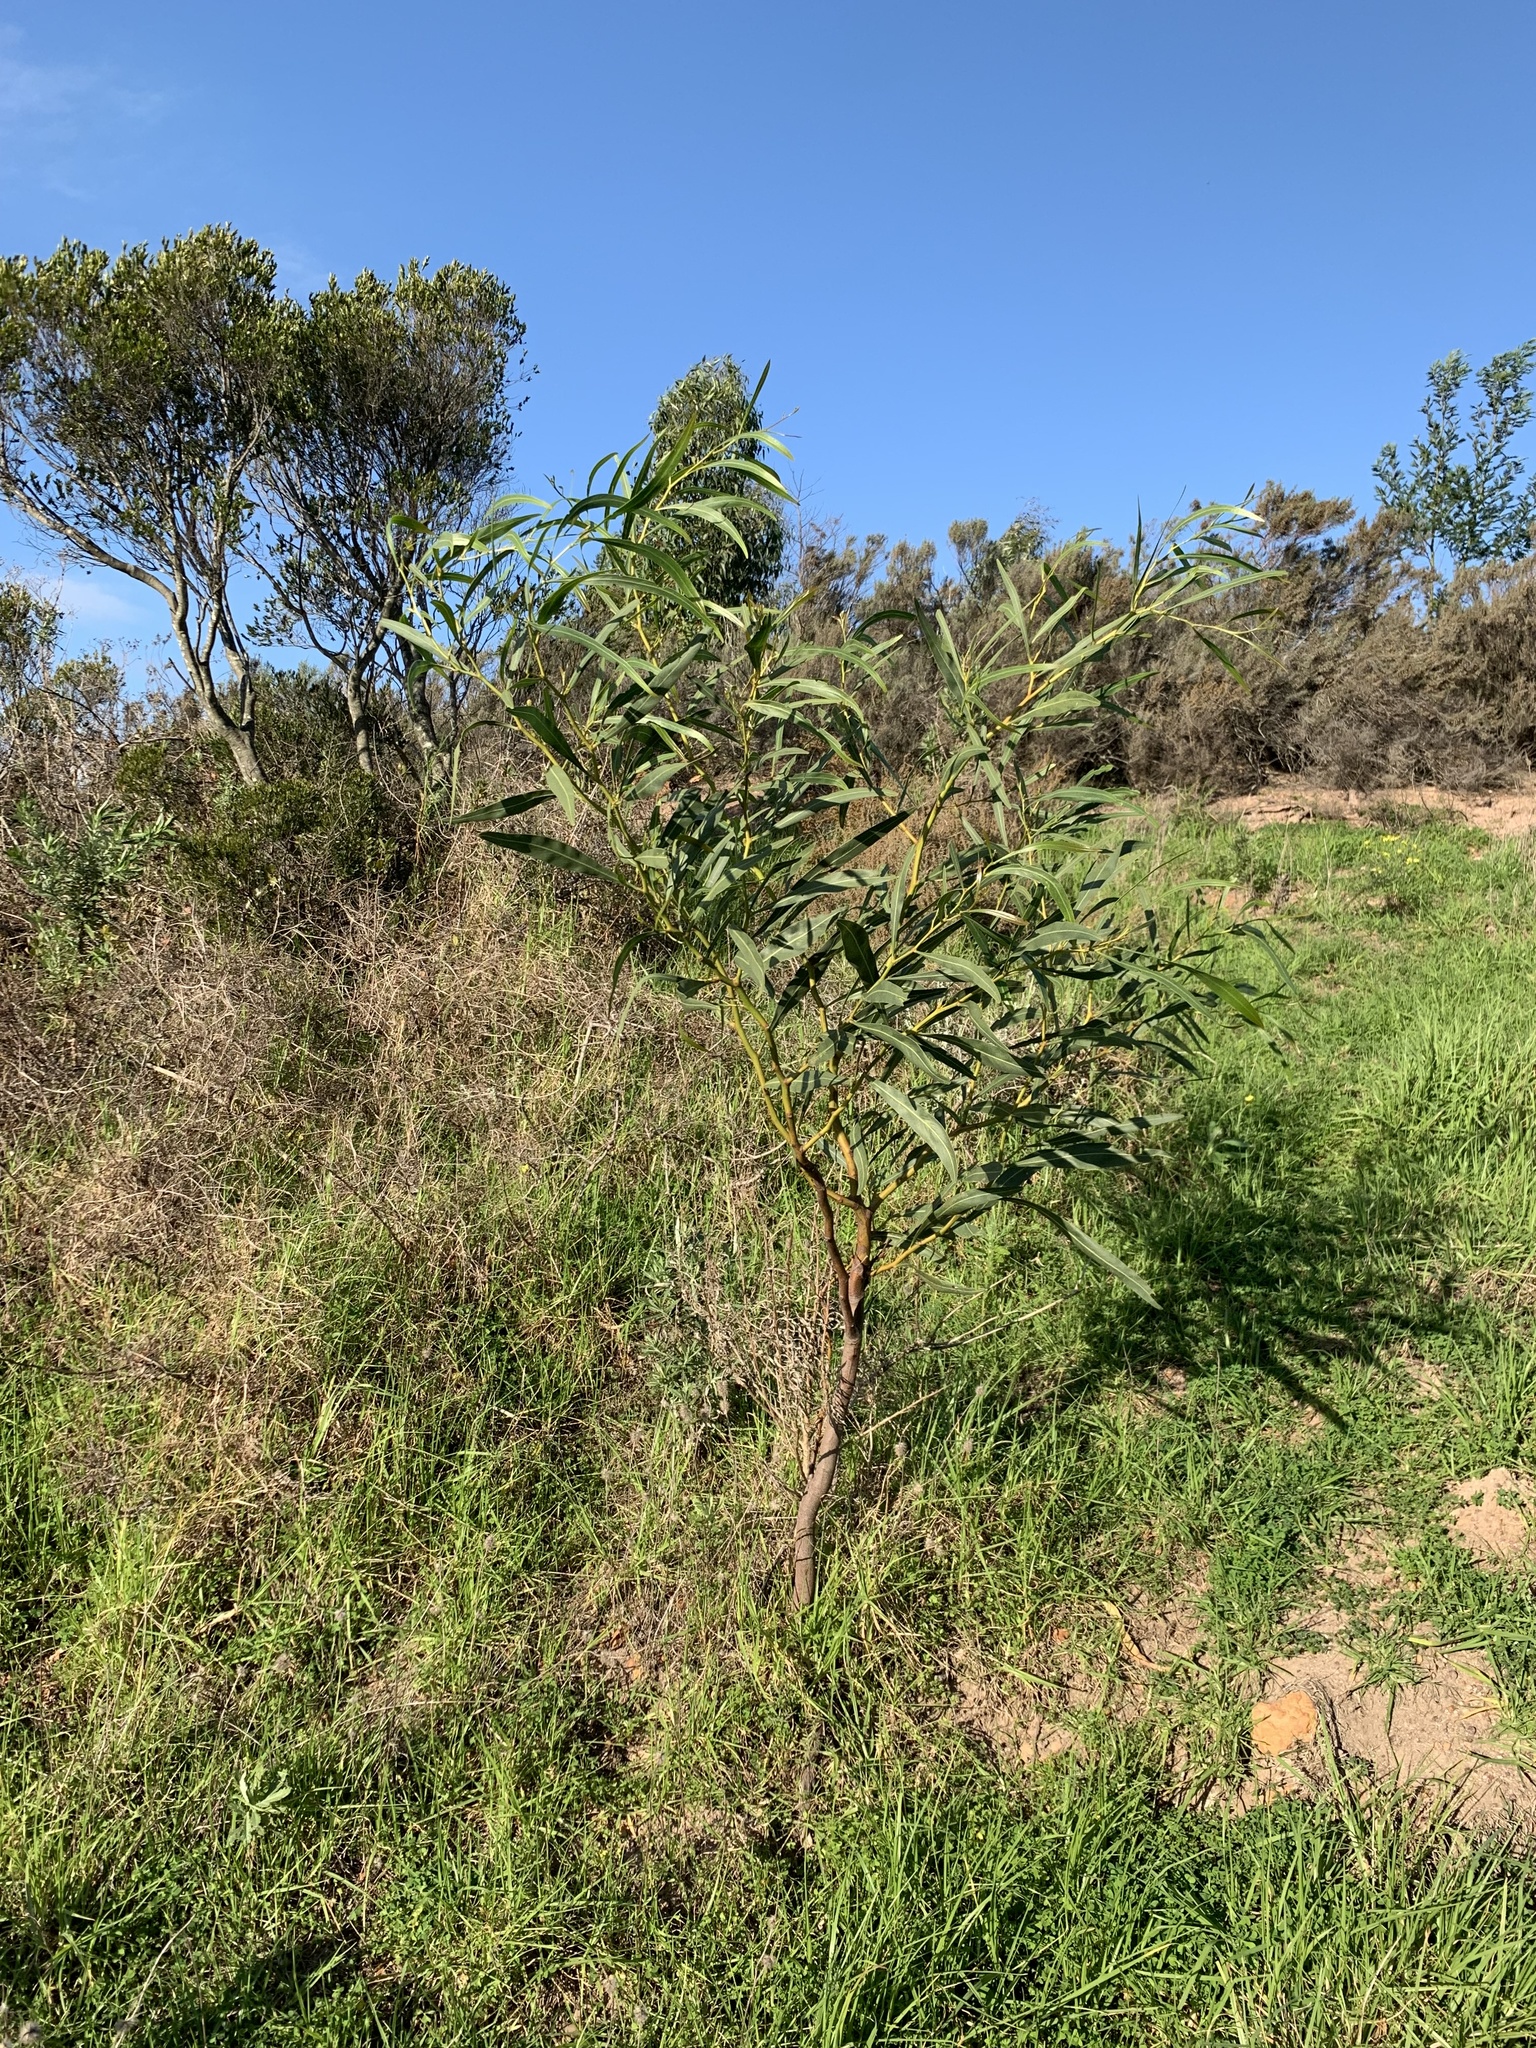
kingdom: Plantae
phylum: Tracheophyta
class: Magnoliopsida
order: Fabales
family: Fabaceae
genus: Acacia
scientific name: Acacia saligna
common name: Orange wattle
